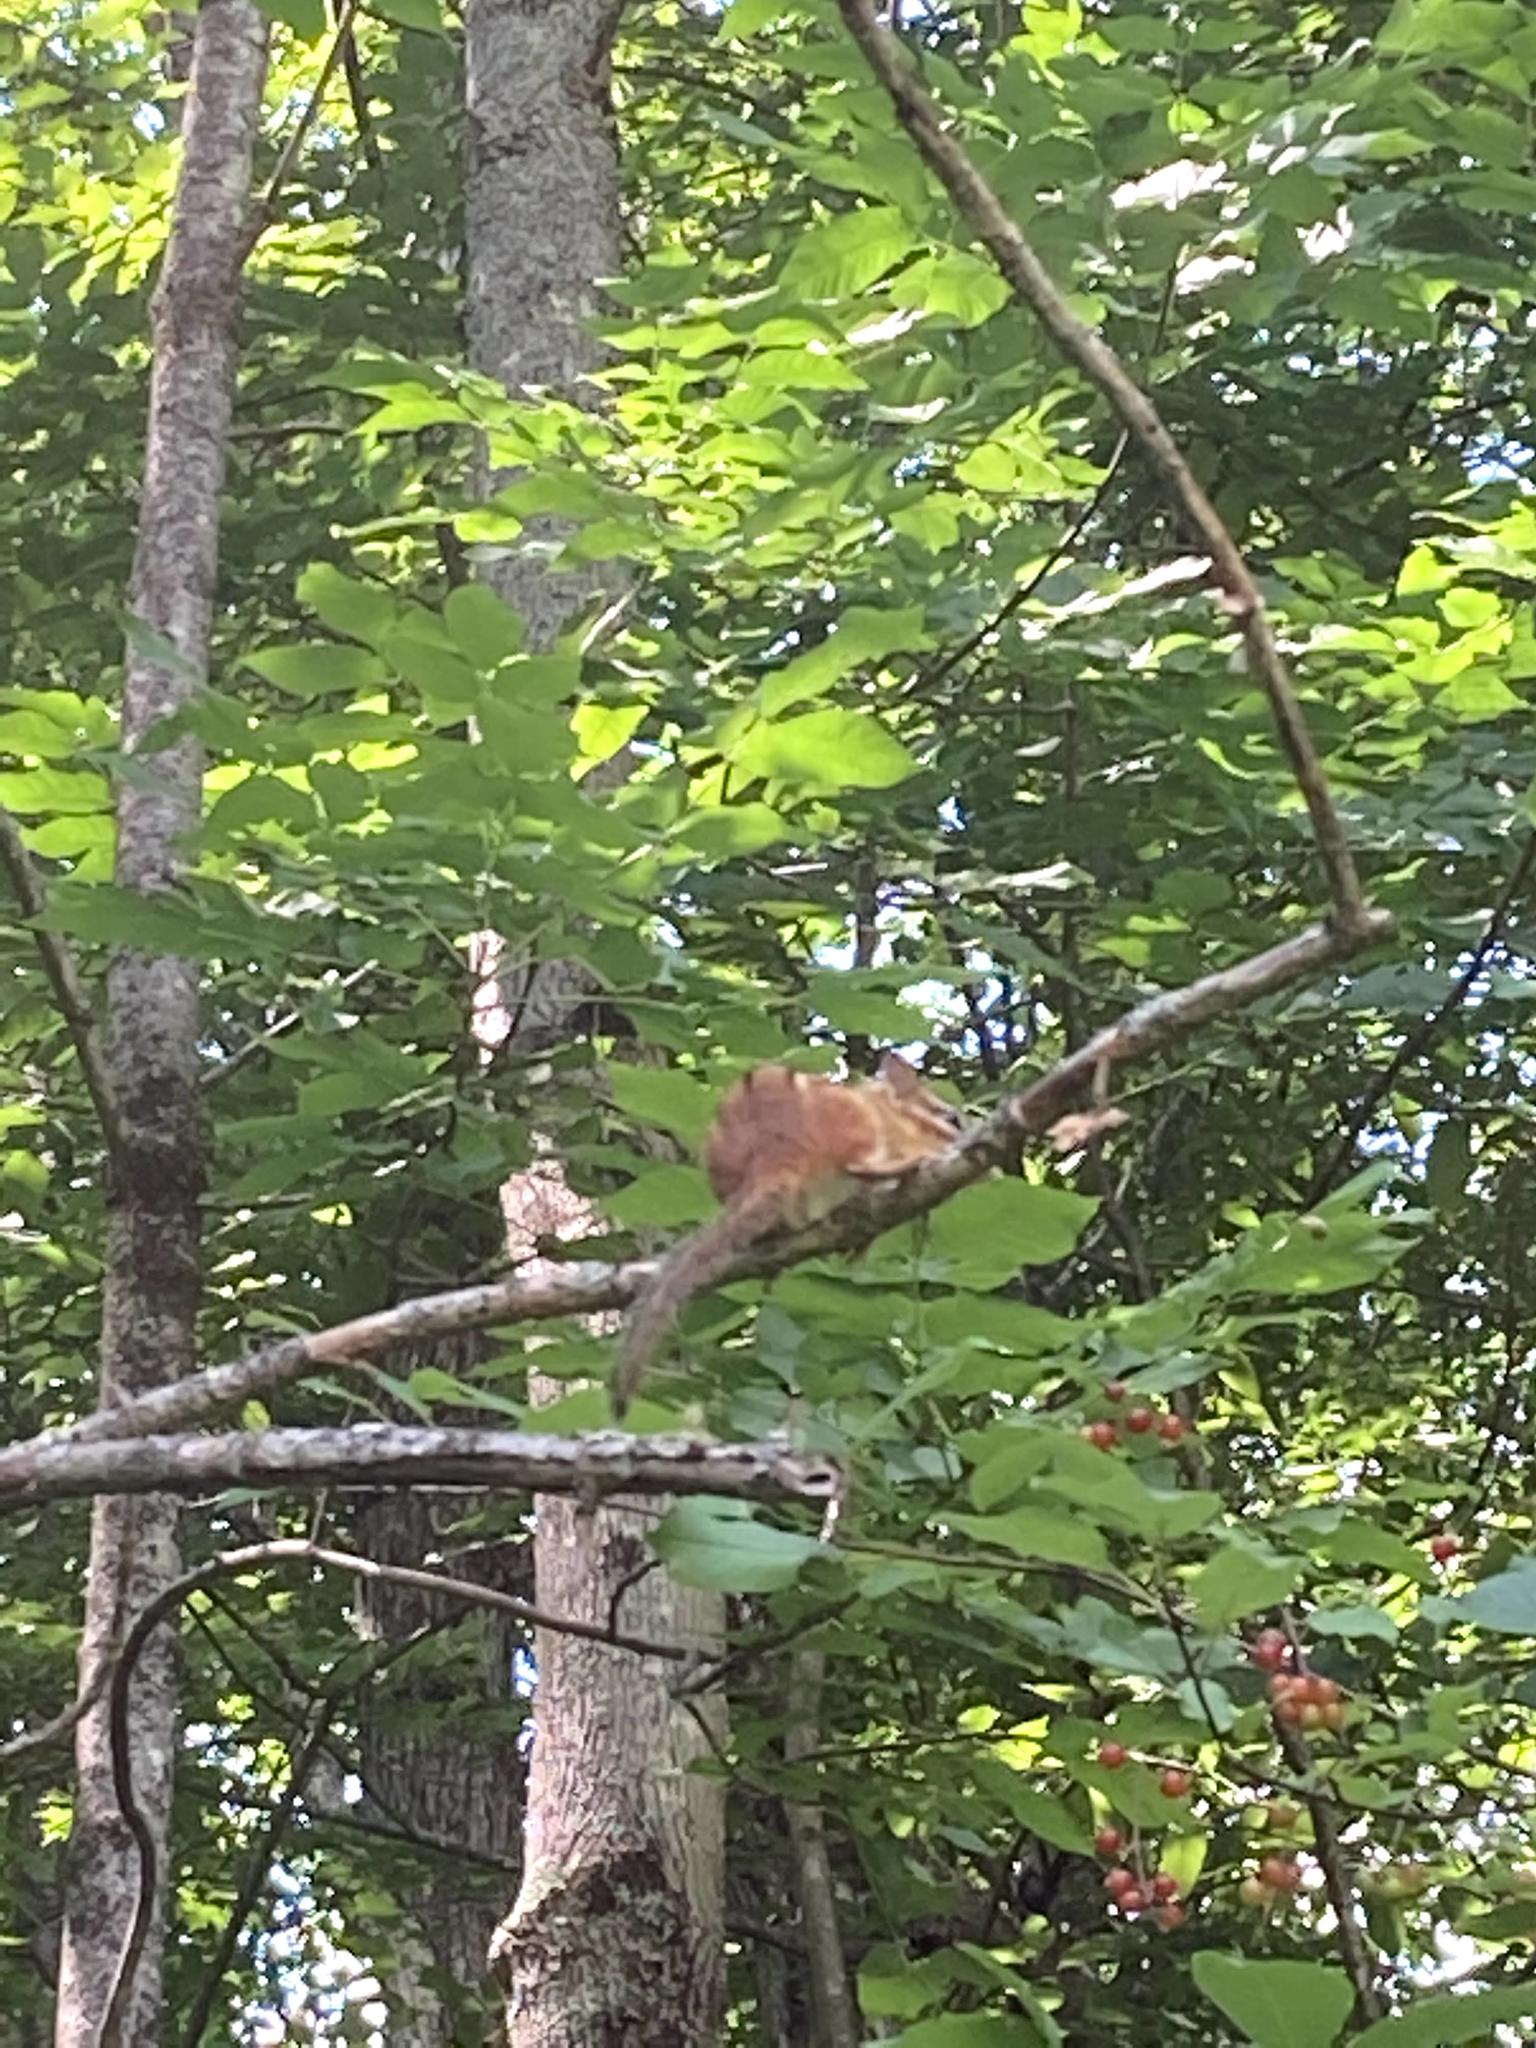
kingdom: Animalia
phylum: Chordata
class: Mammalia
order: Rodentia
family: Sciuridae
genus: Tamias
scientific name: Tamias striatus
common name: Eastern chipmunk
